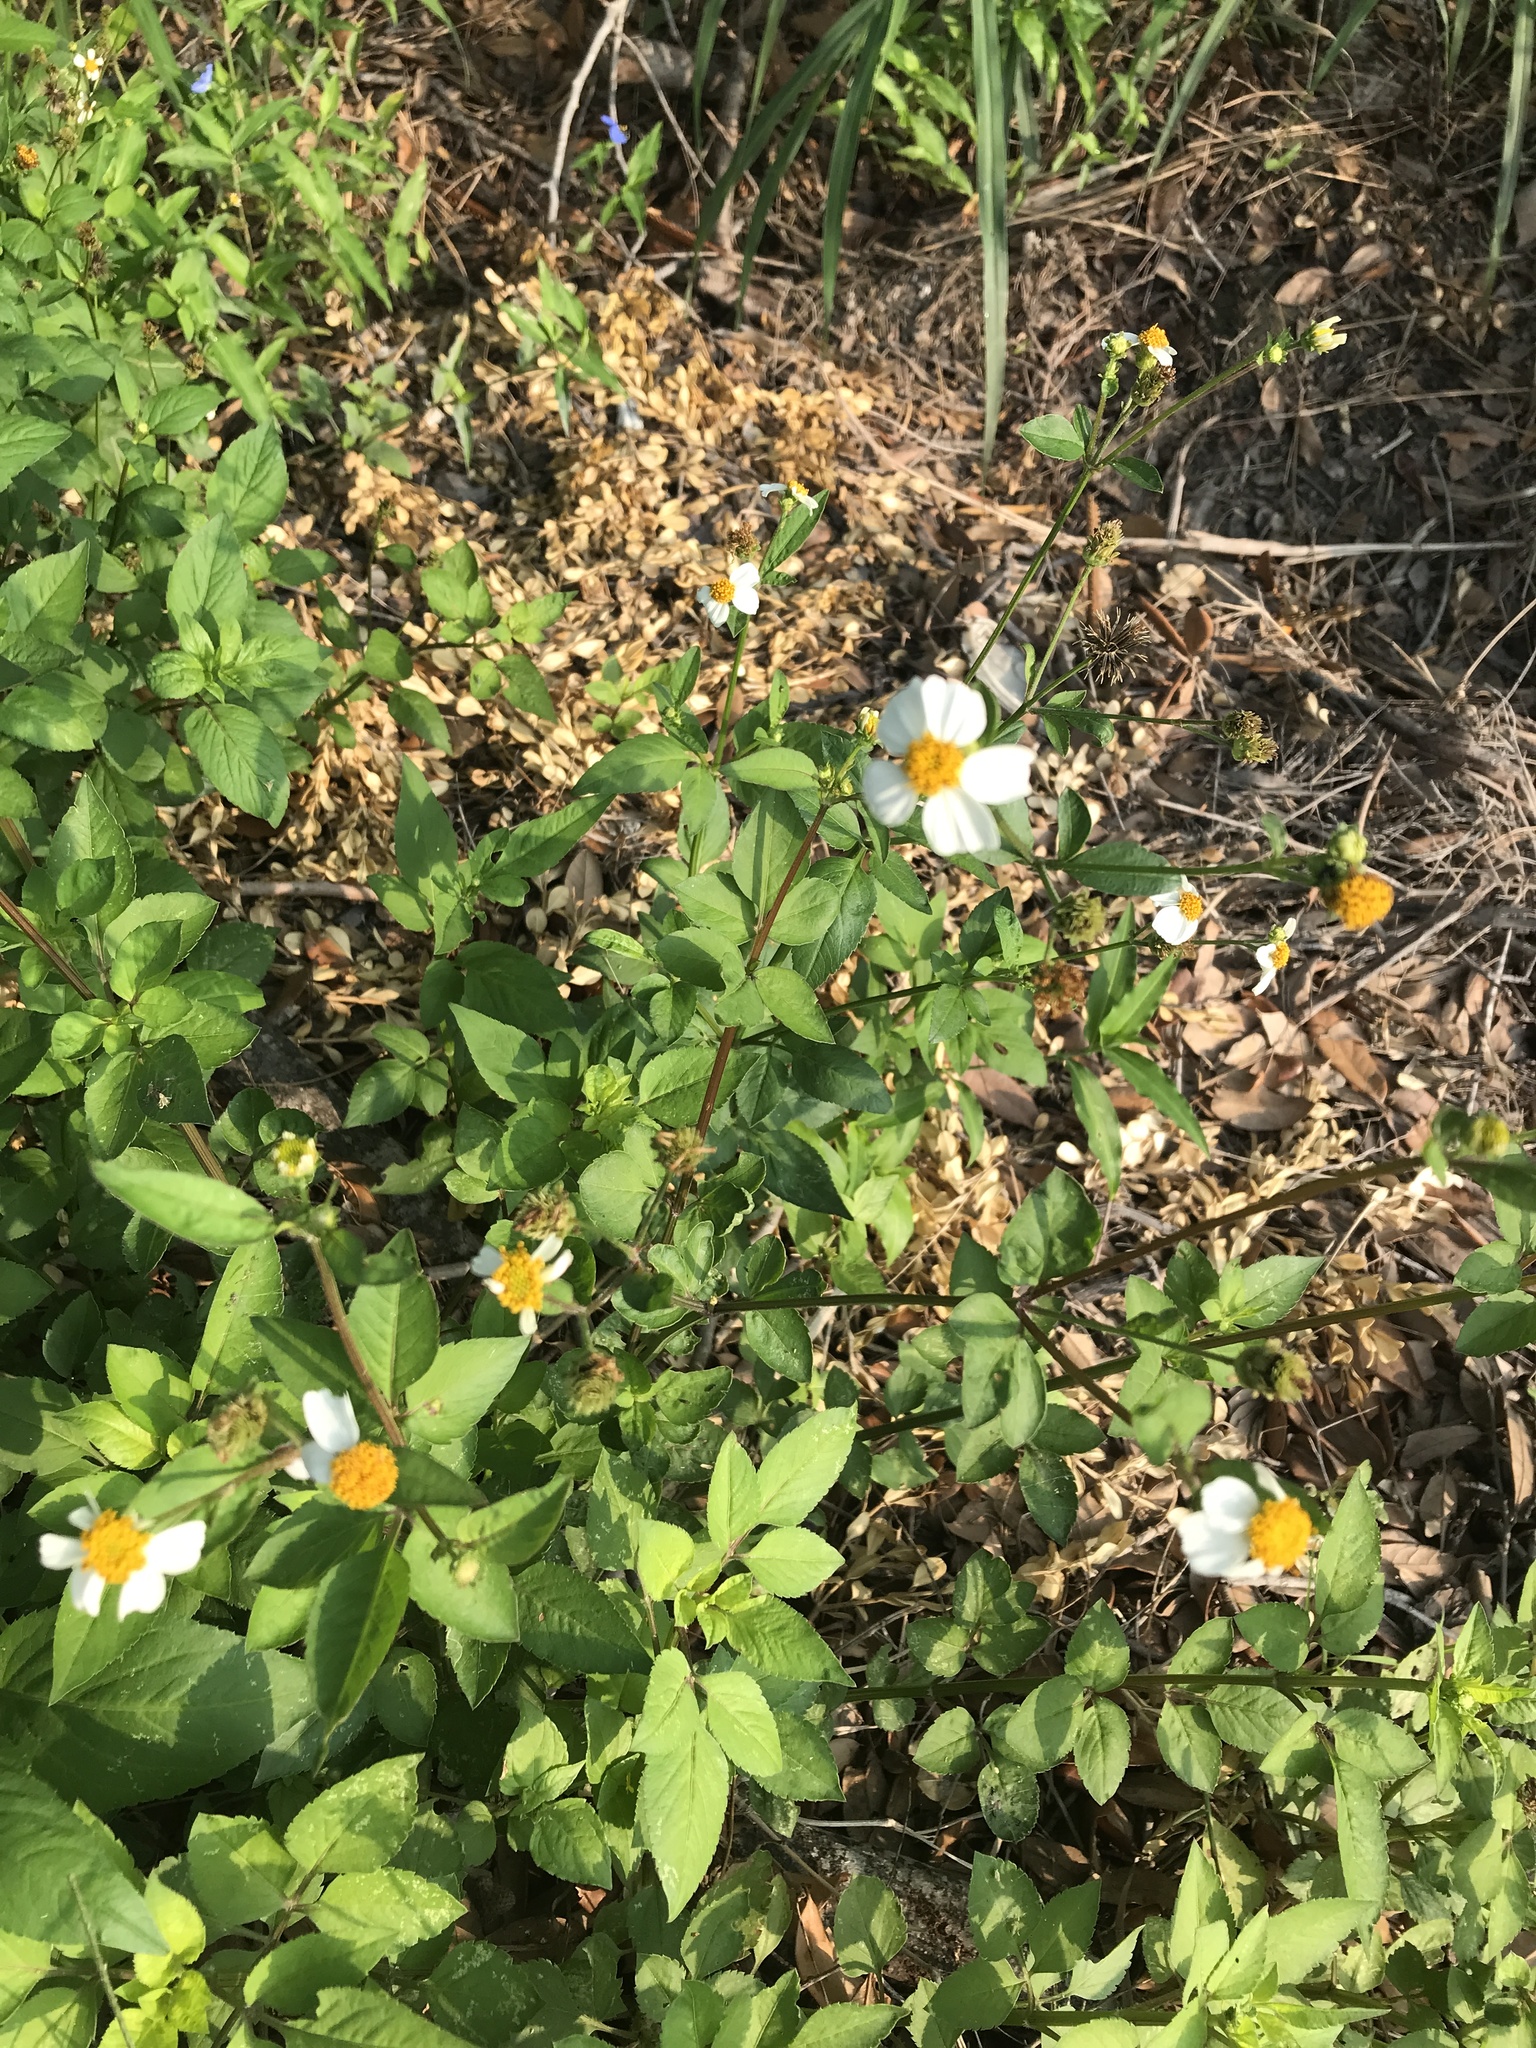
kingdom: Plantae
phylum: Tracheophyta
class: Magnoliopsida
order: Asterales
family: Asteraceae
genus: Bidens
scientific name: Bidens alba
